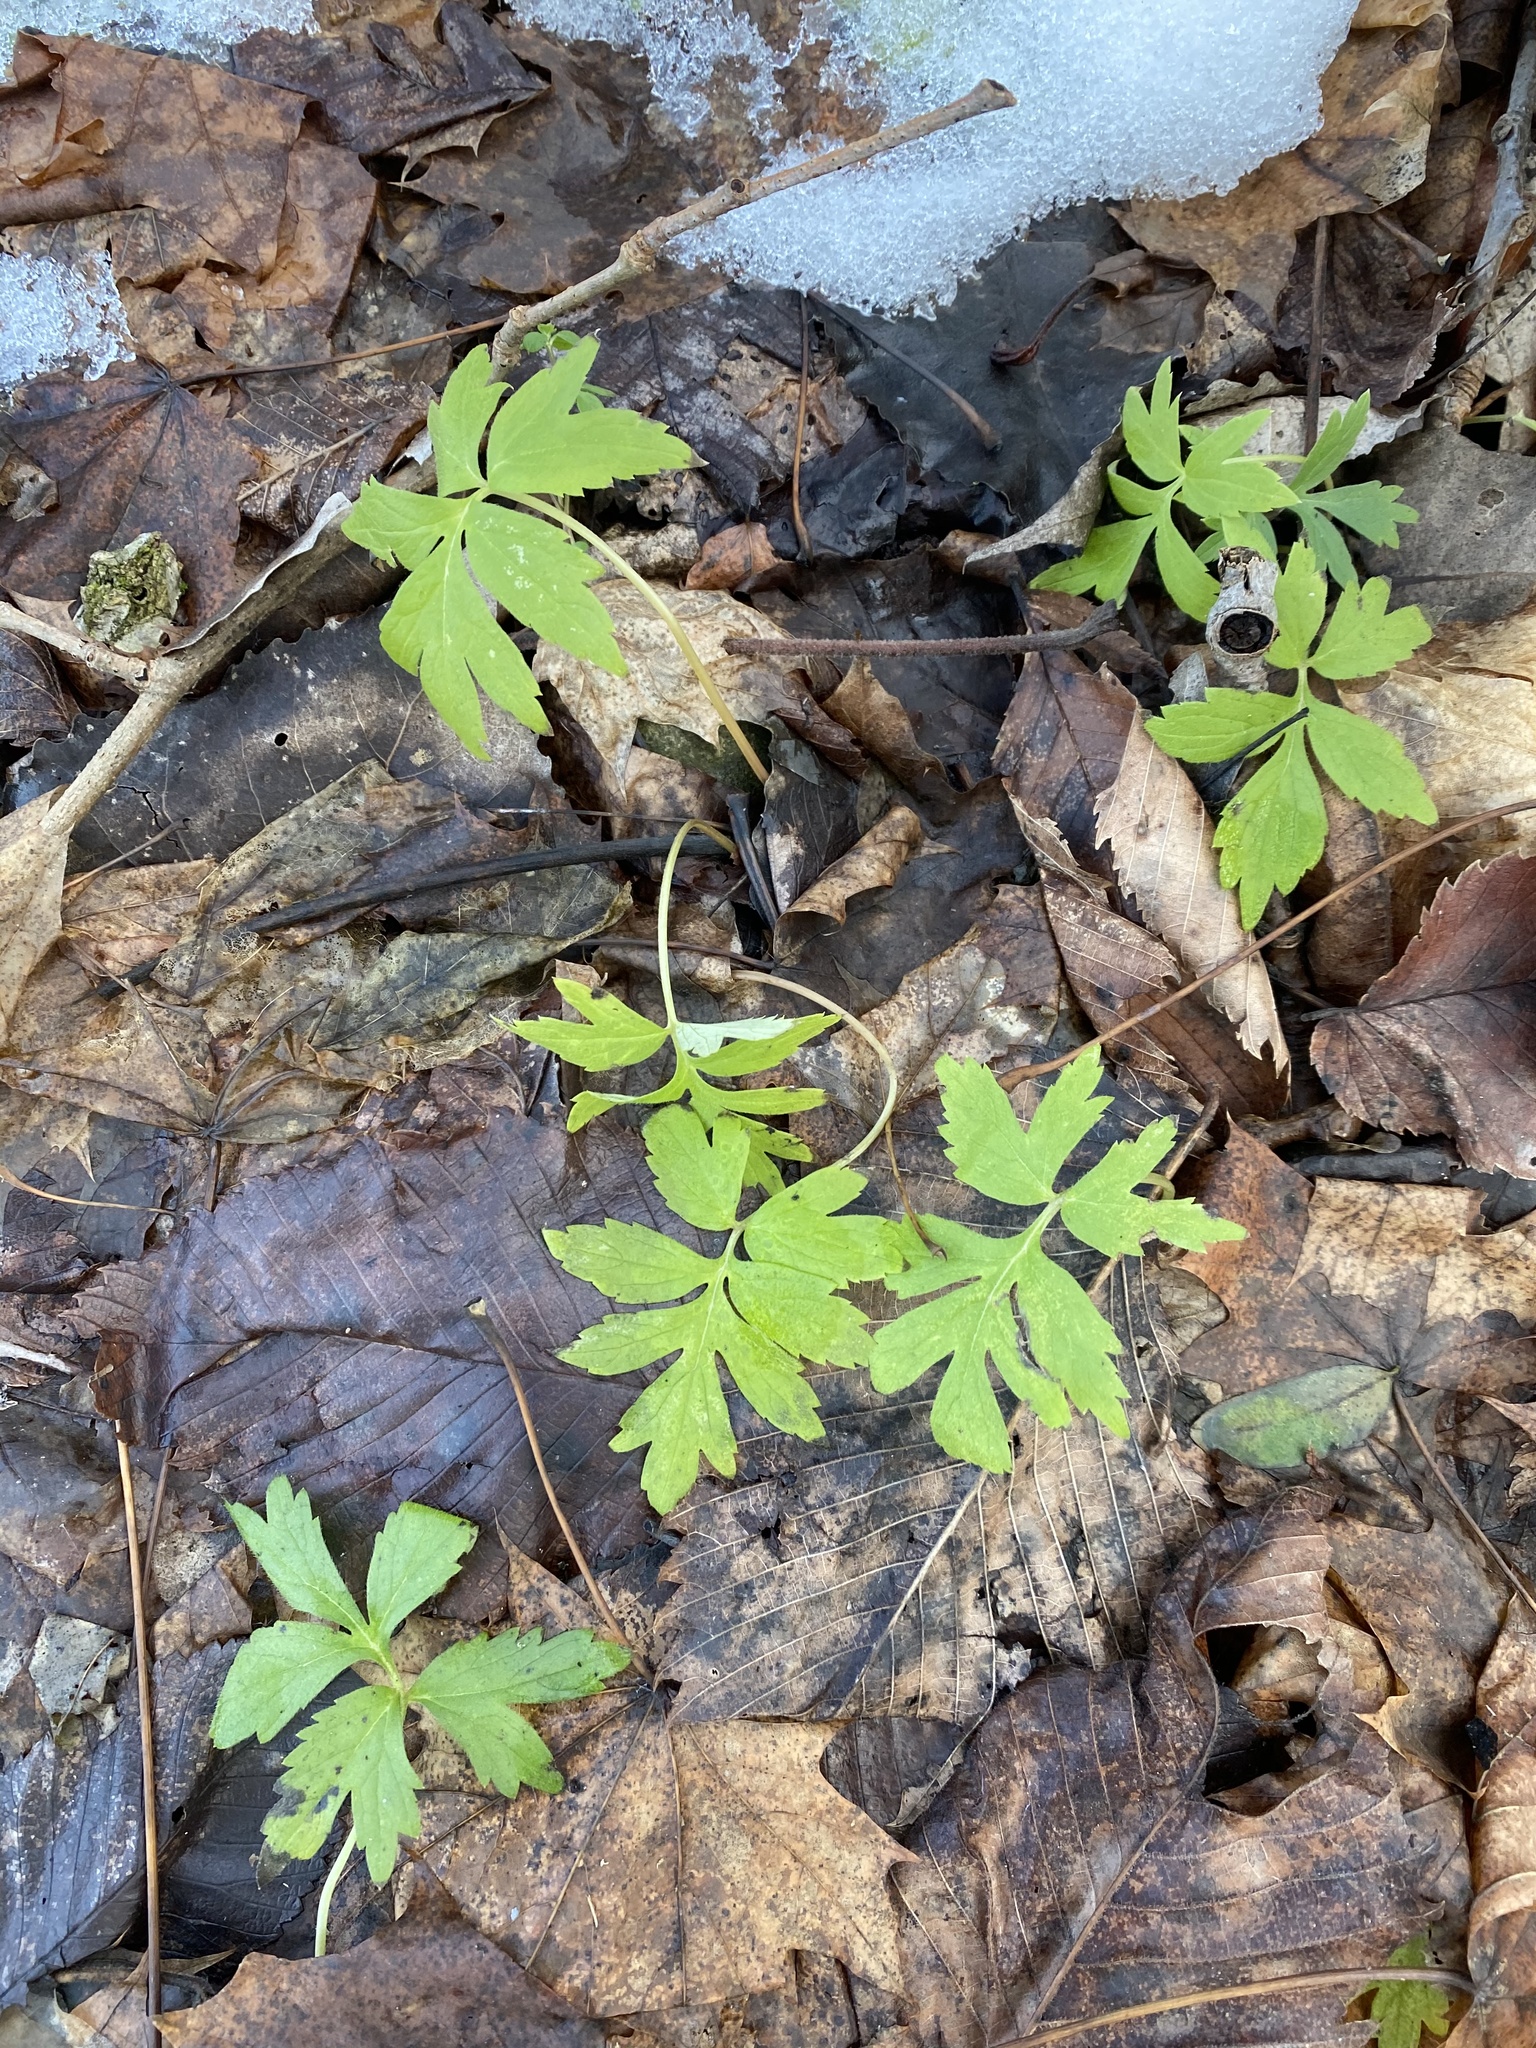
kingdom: Plantae
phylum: Tracheophyta
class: Magnoliopsida
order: Boraginales
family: Hydrophyllaceae
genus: Hydrophyllum
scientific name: Hydrophyllum virginianum
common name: Virginia waterleaf
